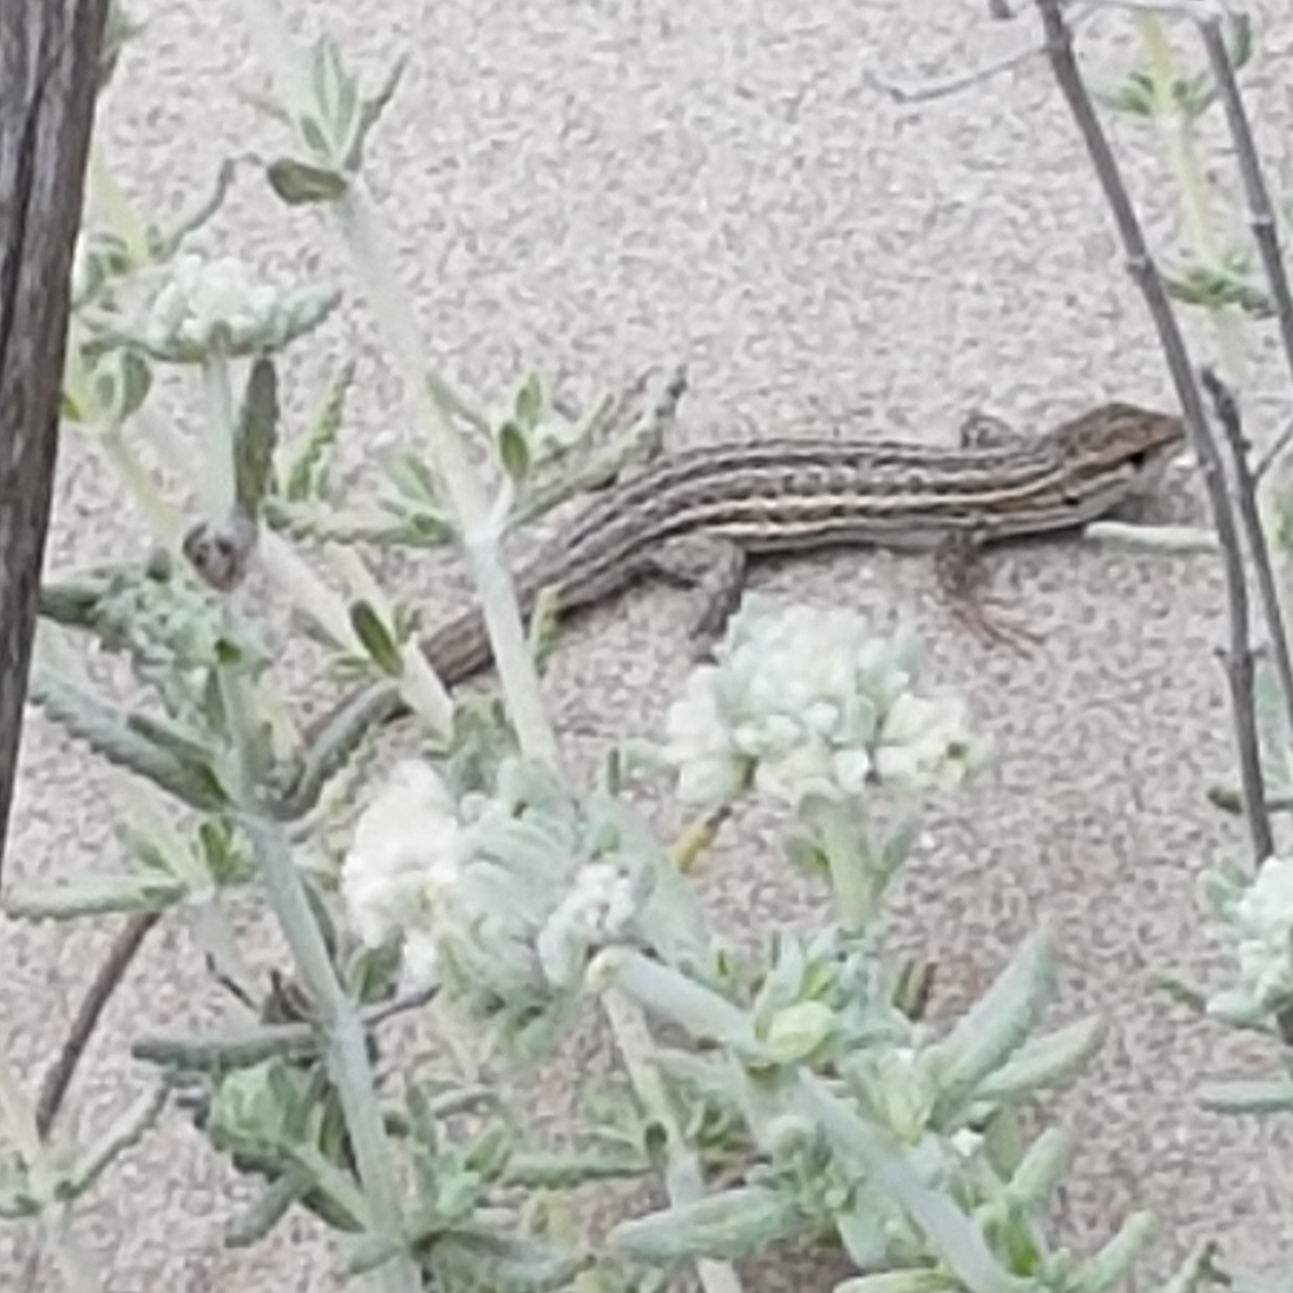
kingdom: Animalia
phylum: Chordata
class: Squamata
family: Lacertidae
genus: Psammodromus
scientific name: Psammodromus edwarsianus
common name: East iberian psammodromus
